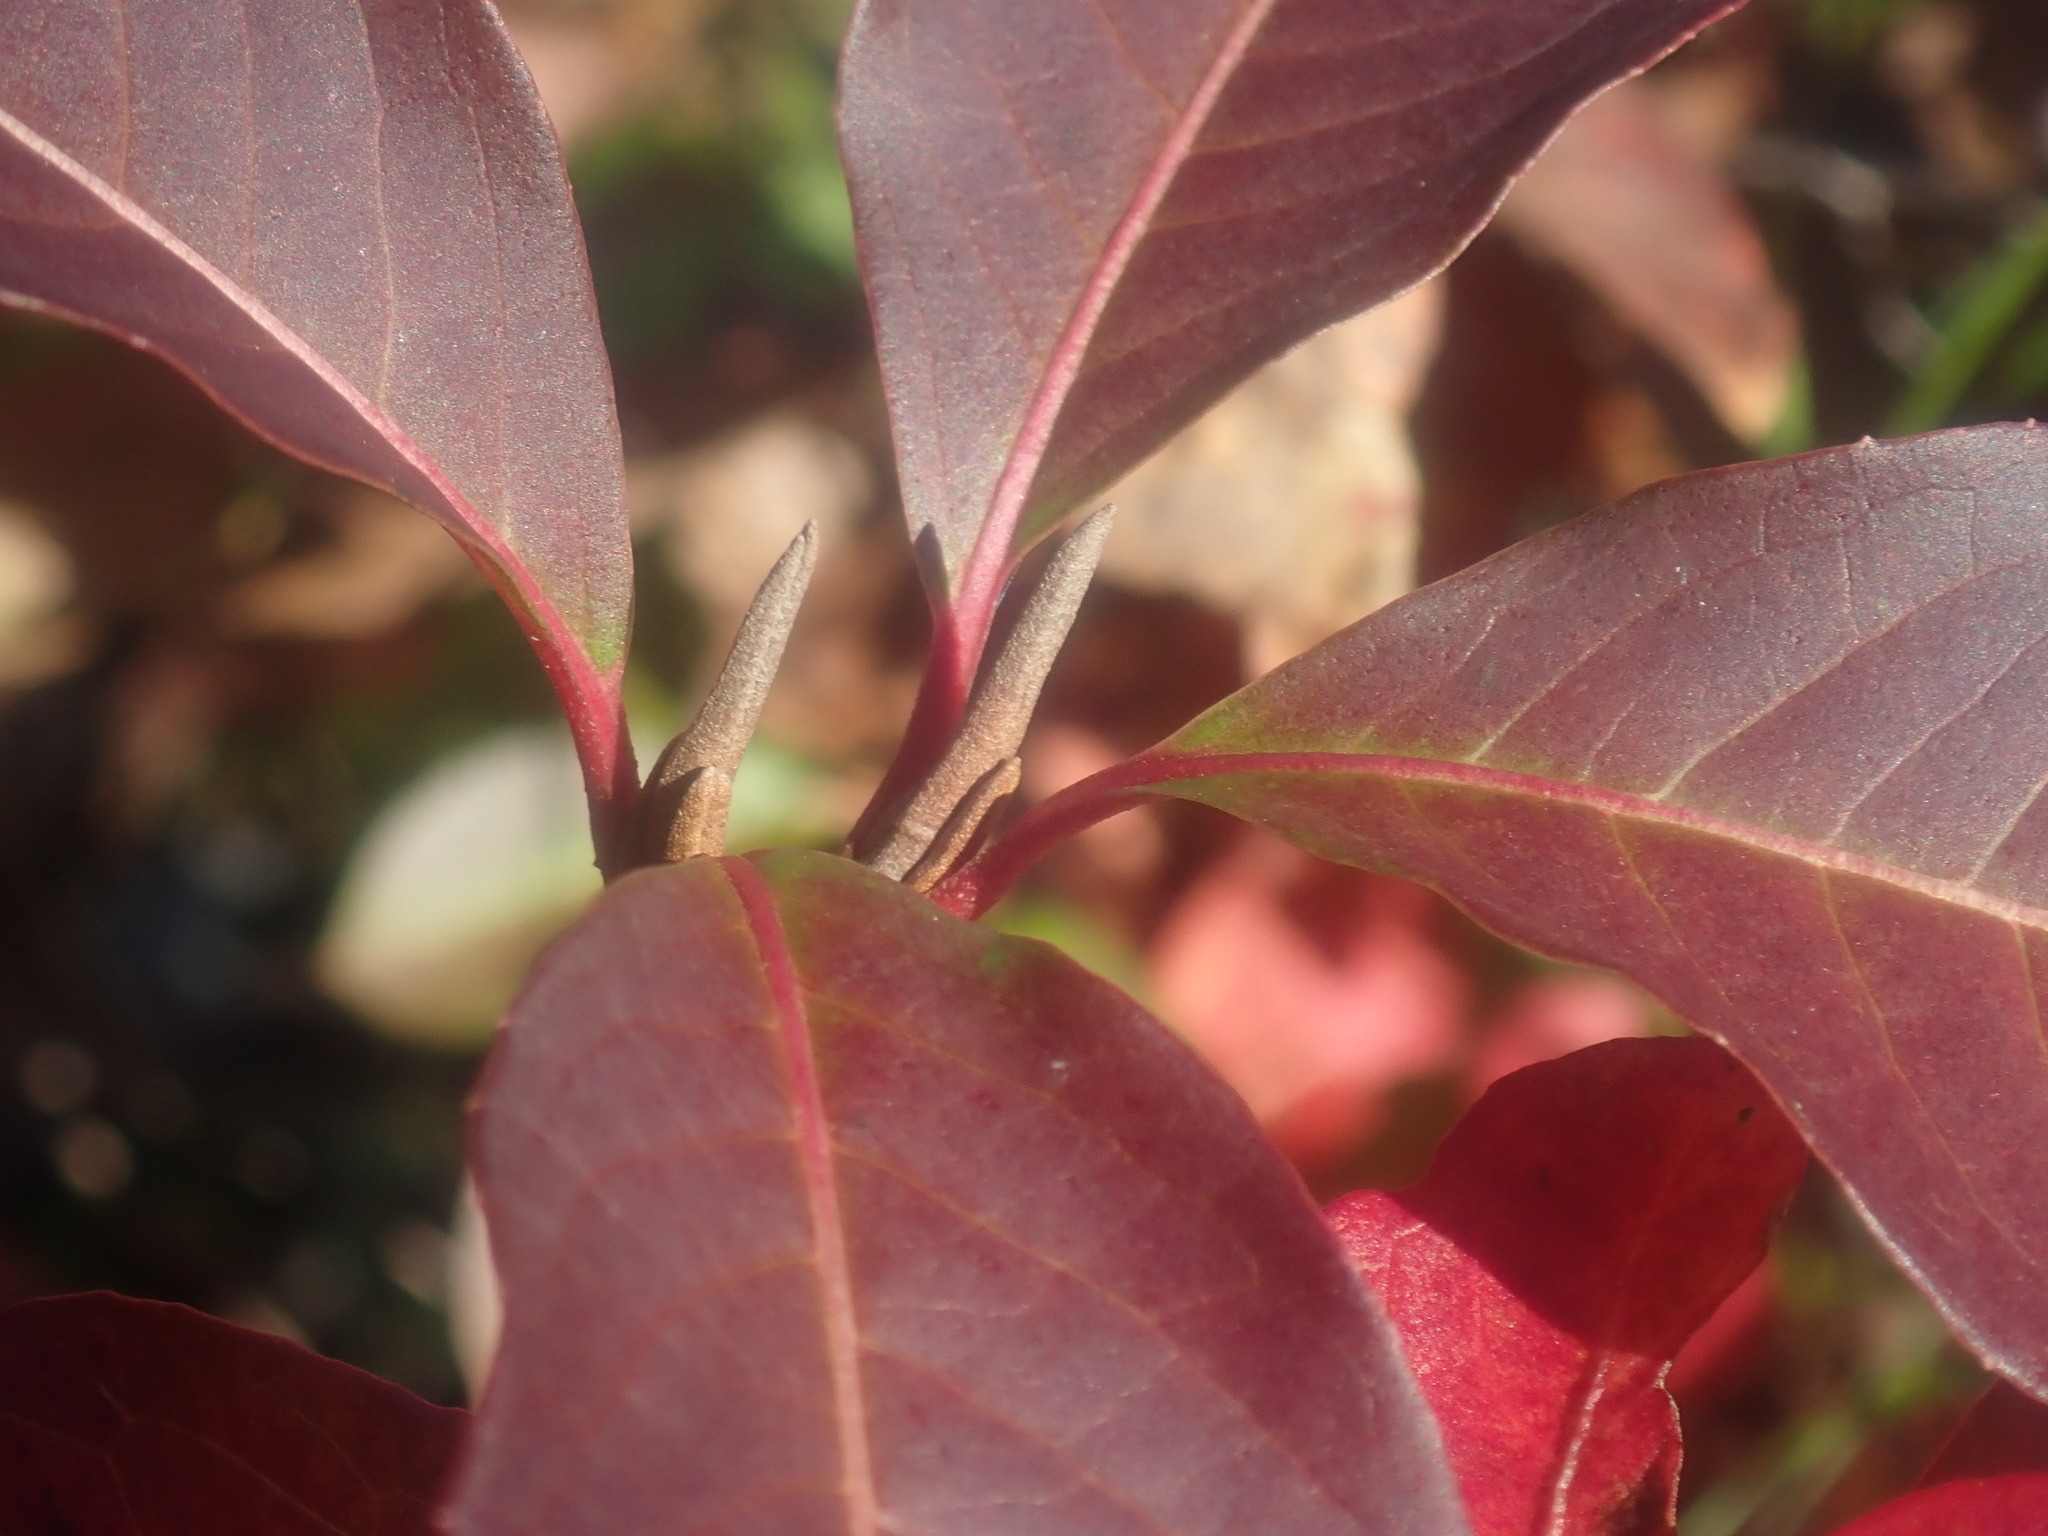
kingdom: Plantae
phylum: Tracheophyta
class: Magnoliopsida
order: Dipsacales
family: Viburnaceae
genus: Viburnum
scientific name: Viburnum cassinoides
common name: Swamp haw
